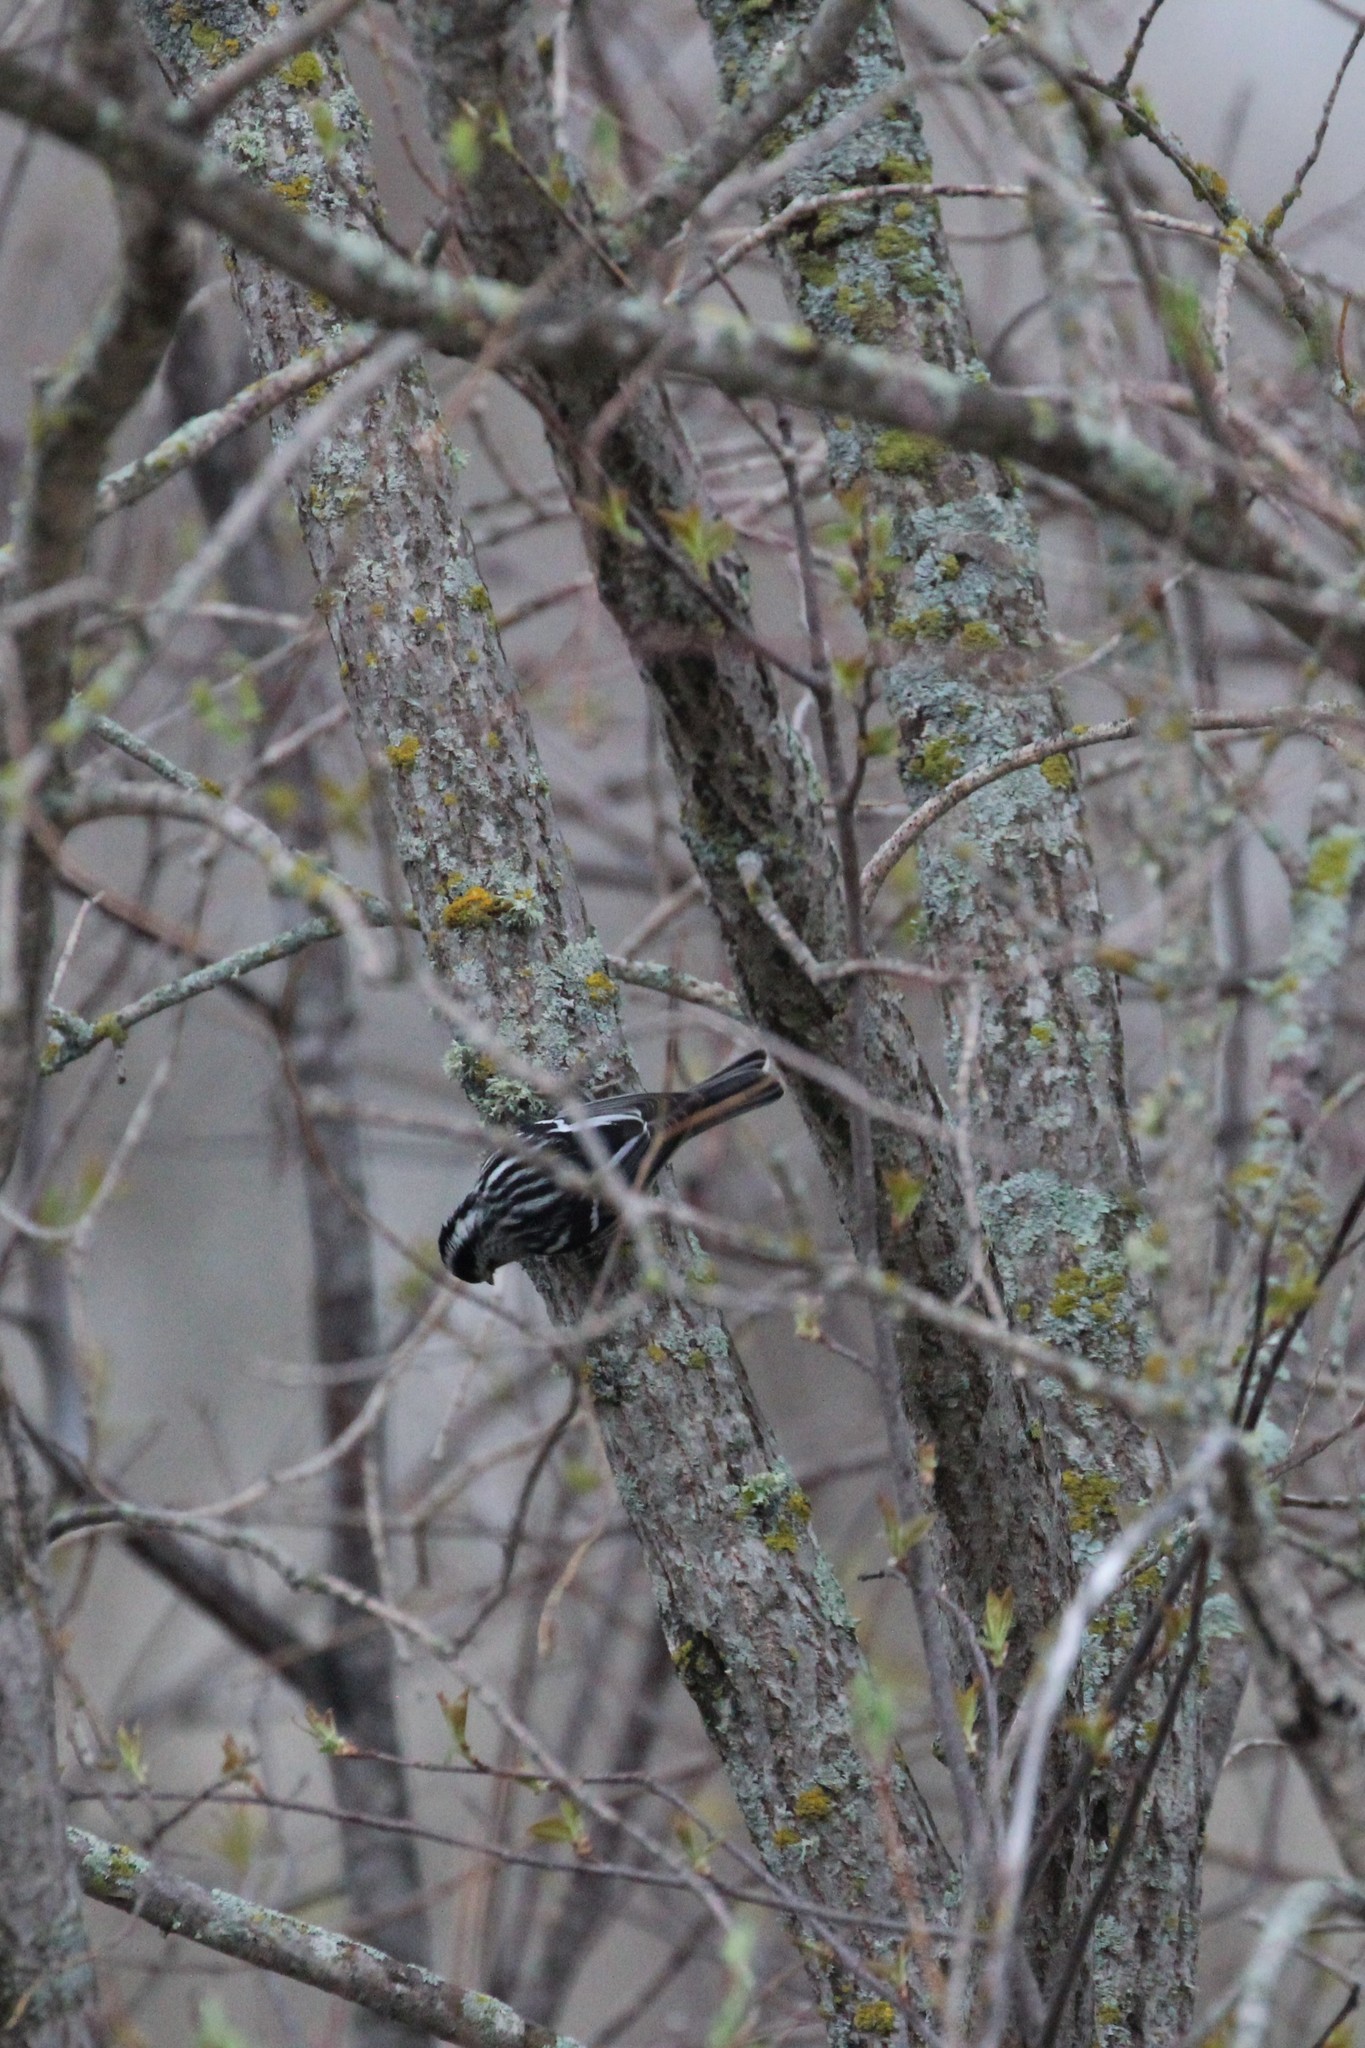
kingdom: Animalia
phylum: Chordata
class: Aves
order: Passeriformes
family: Parulidae
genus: Mniotilta
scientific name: Mniotilta varia
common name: Black-and-white warbler
